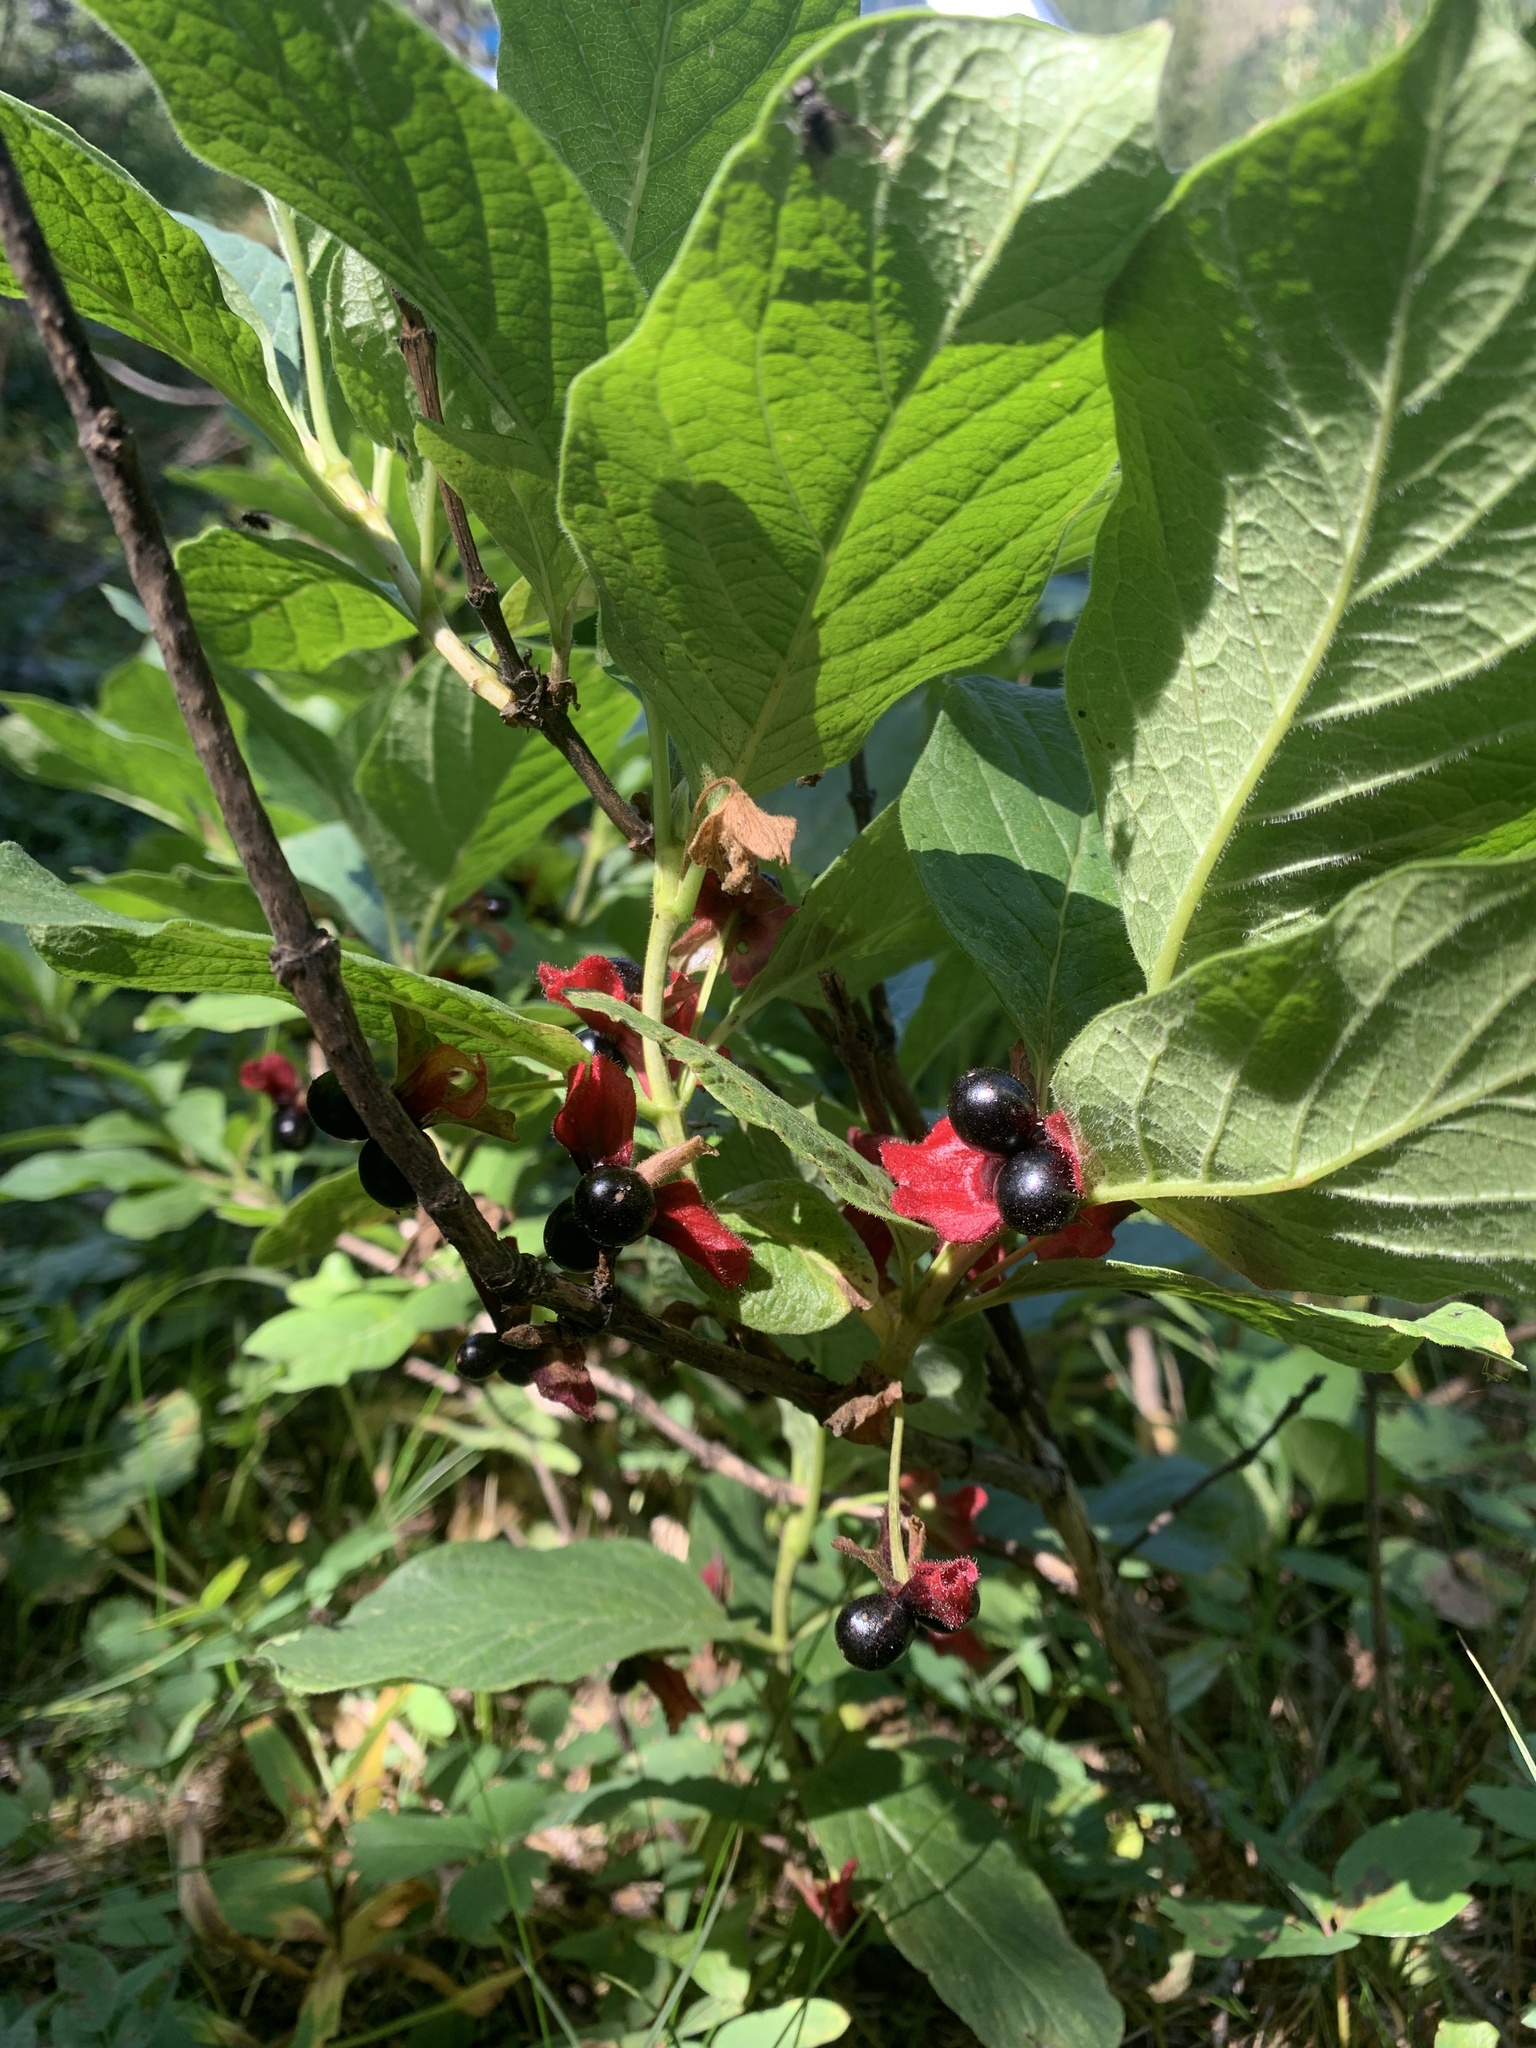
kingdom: Plantae
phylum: Tracheophyta
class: Magnoliopsida
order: Dipsacales
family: Caprifoliaceae
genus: Lonicera
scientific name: Lonicera involucrata
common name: Californian honeysuckle
